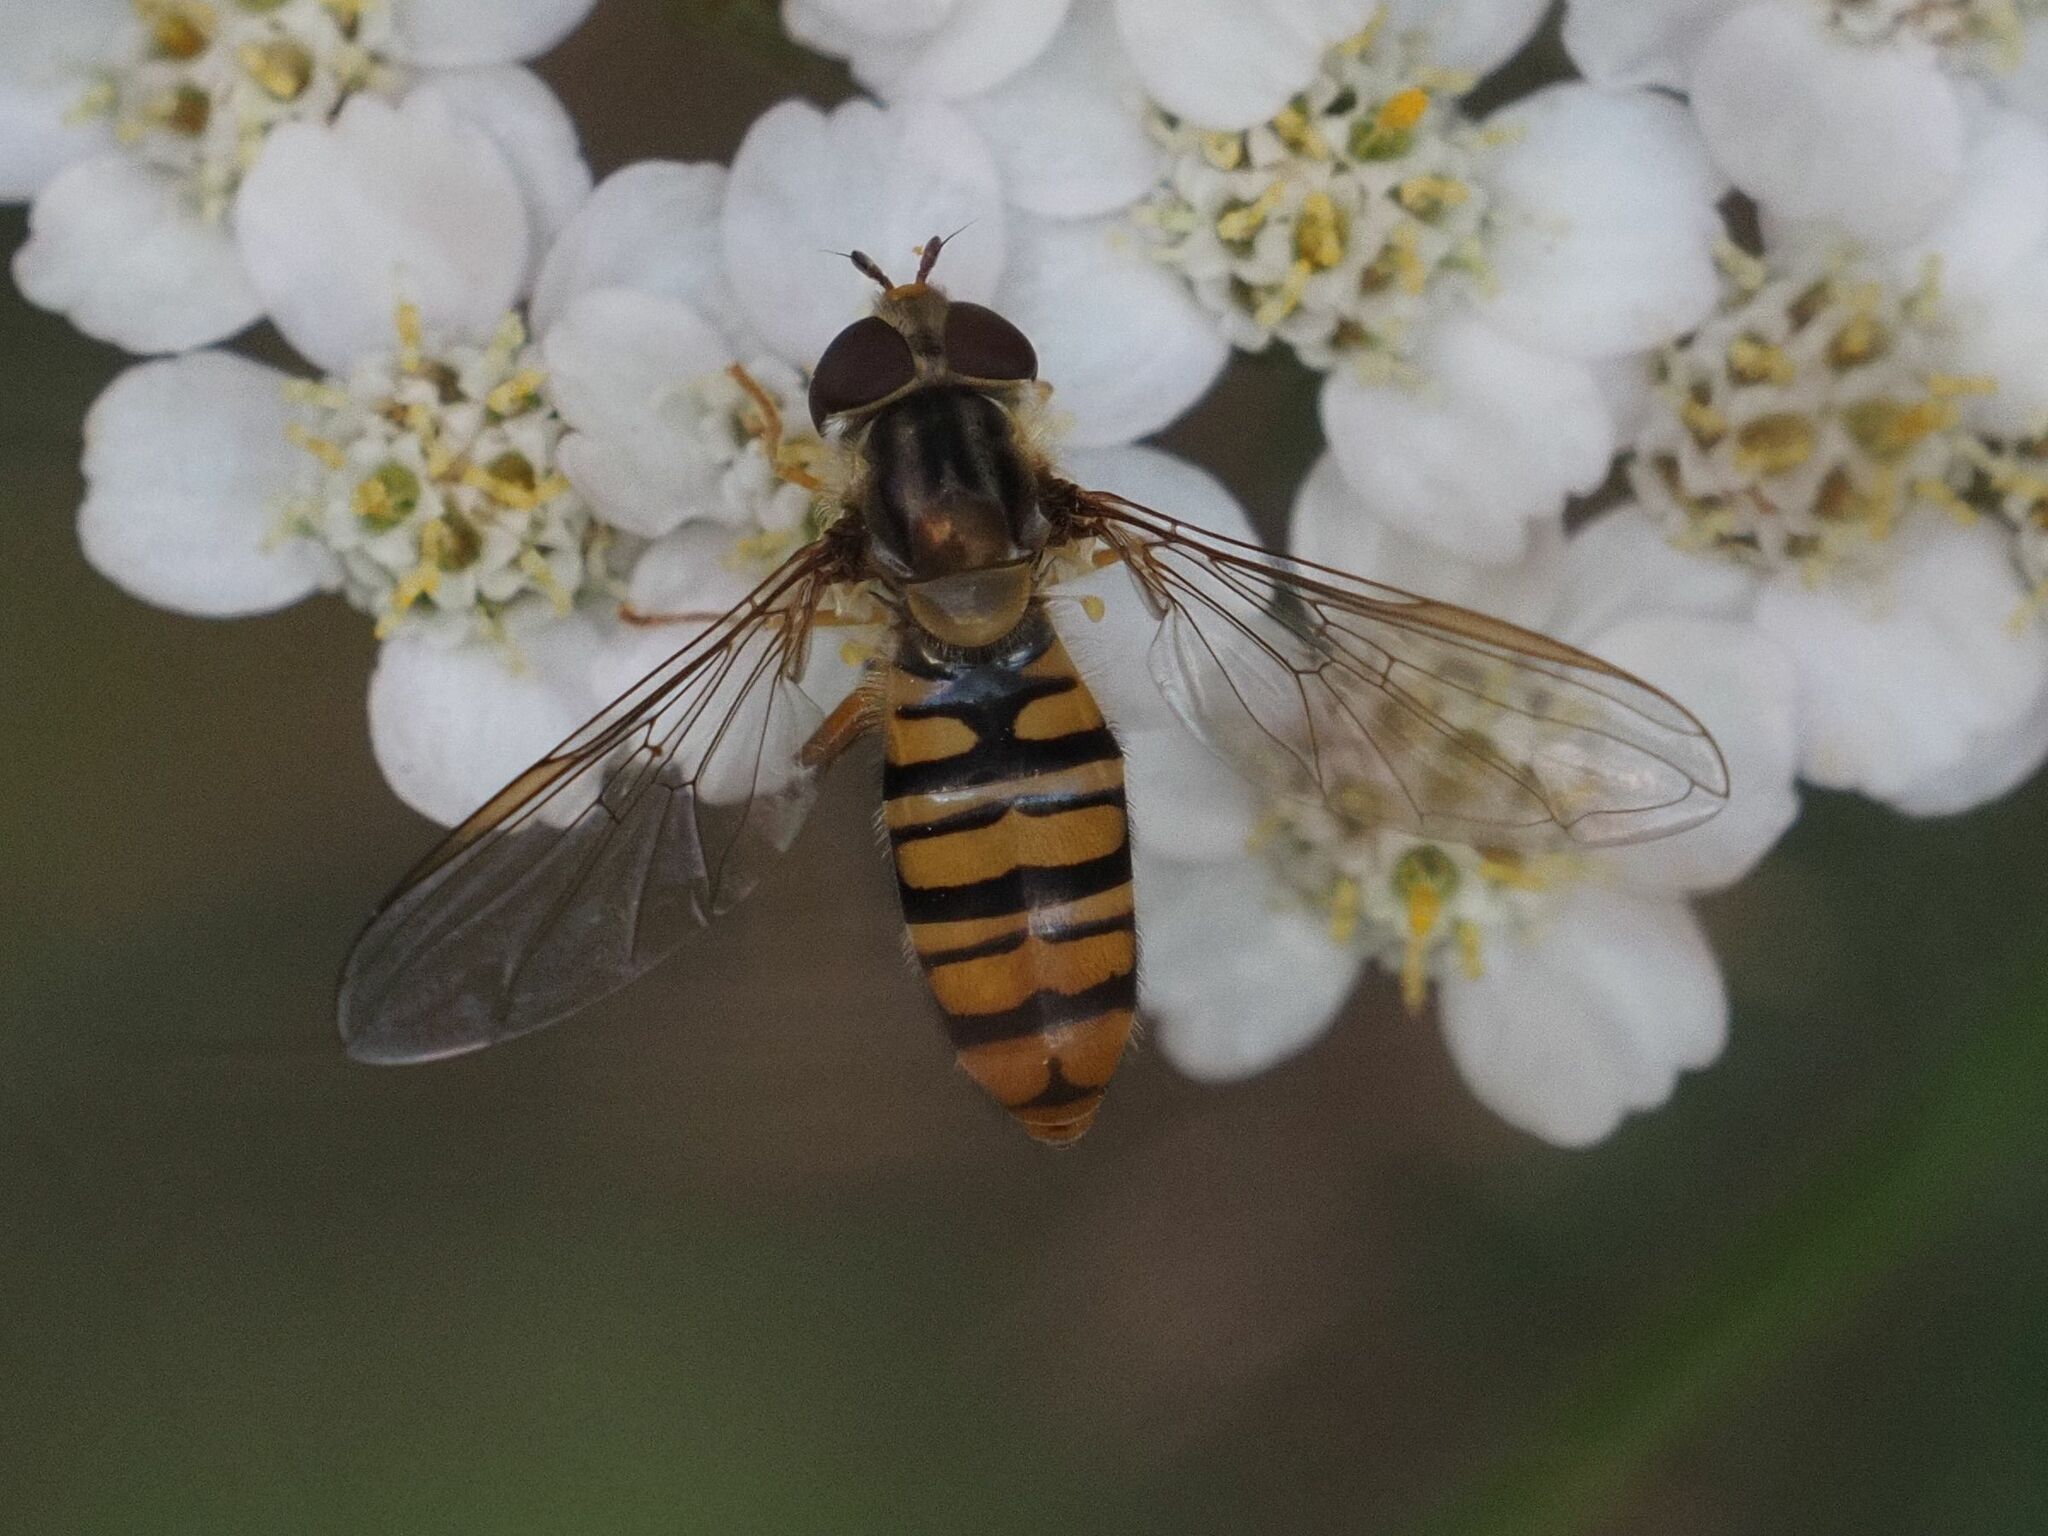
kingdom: Animalia
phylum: Arthropoda
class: Insecta
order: Diptera
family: Syrphidae
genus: Episyrphus
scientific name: Episyrphus balteatus
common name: Marmalade hoverfly
